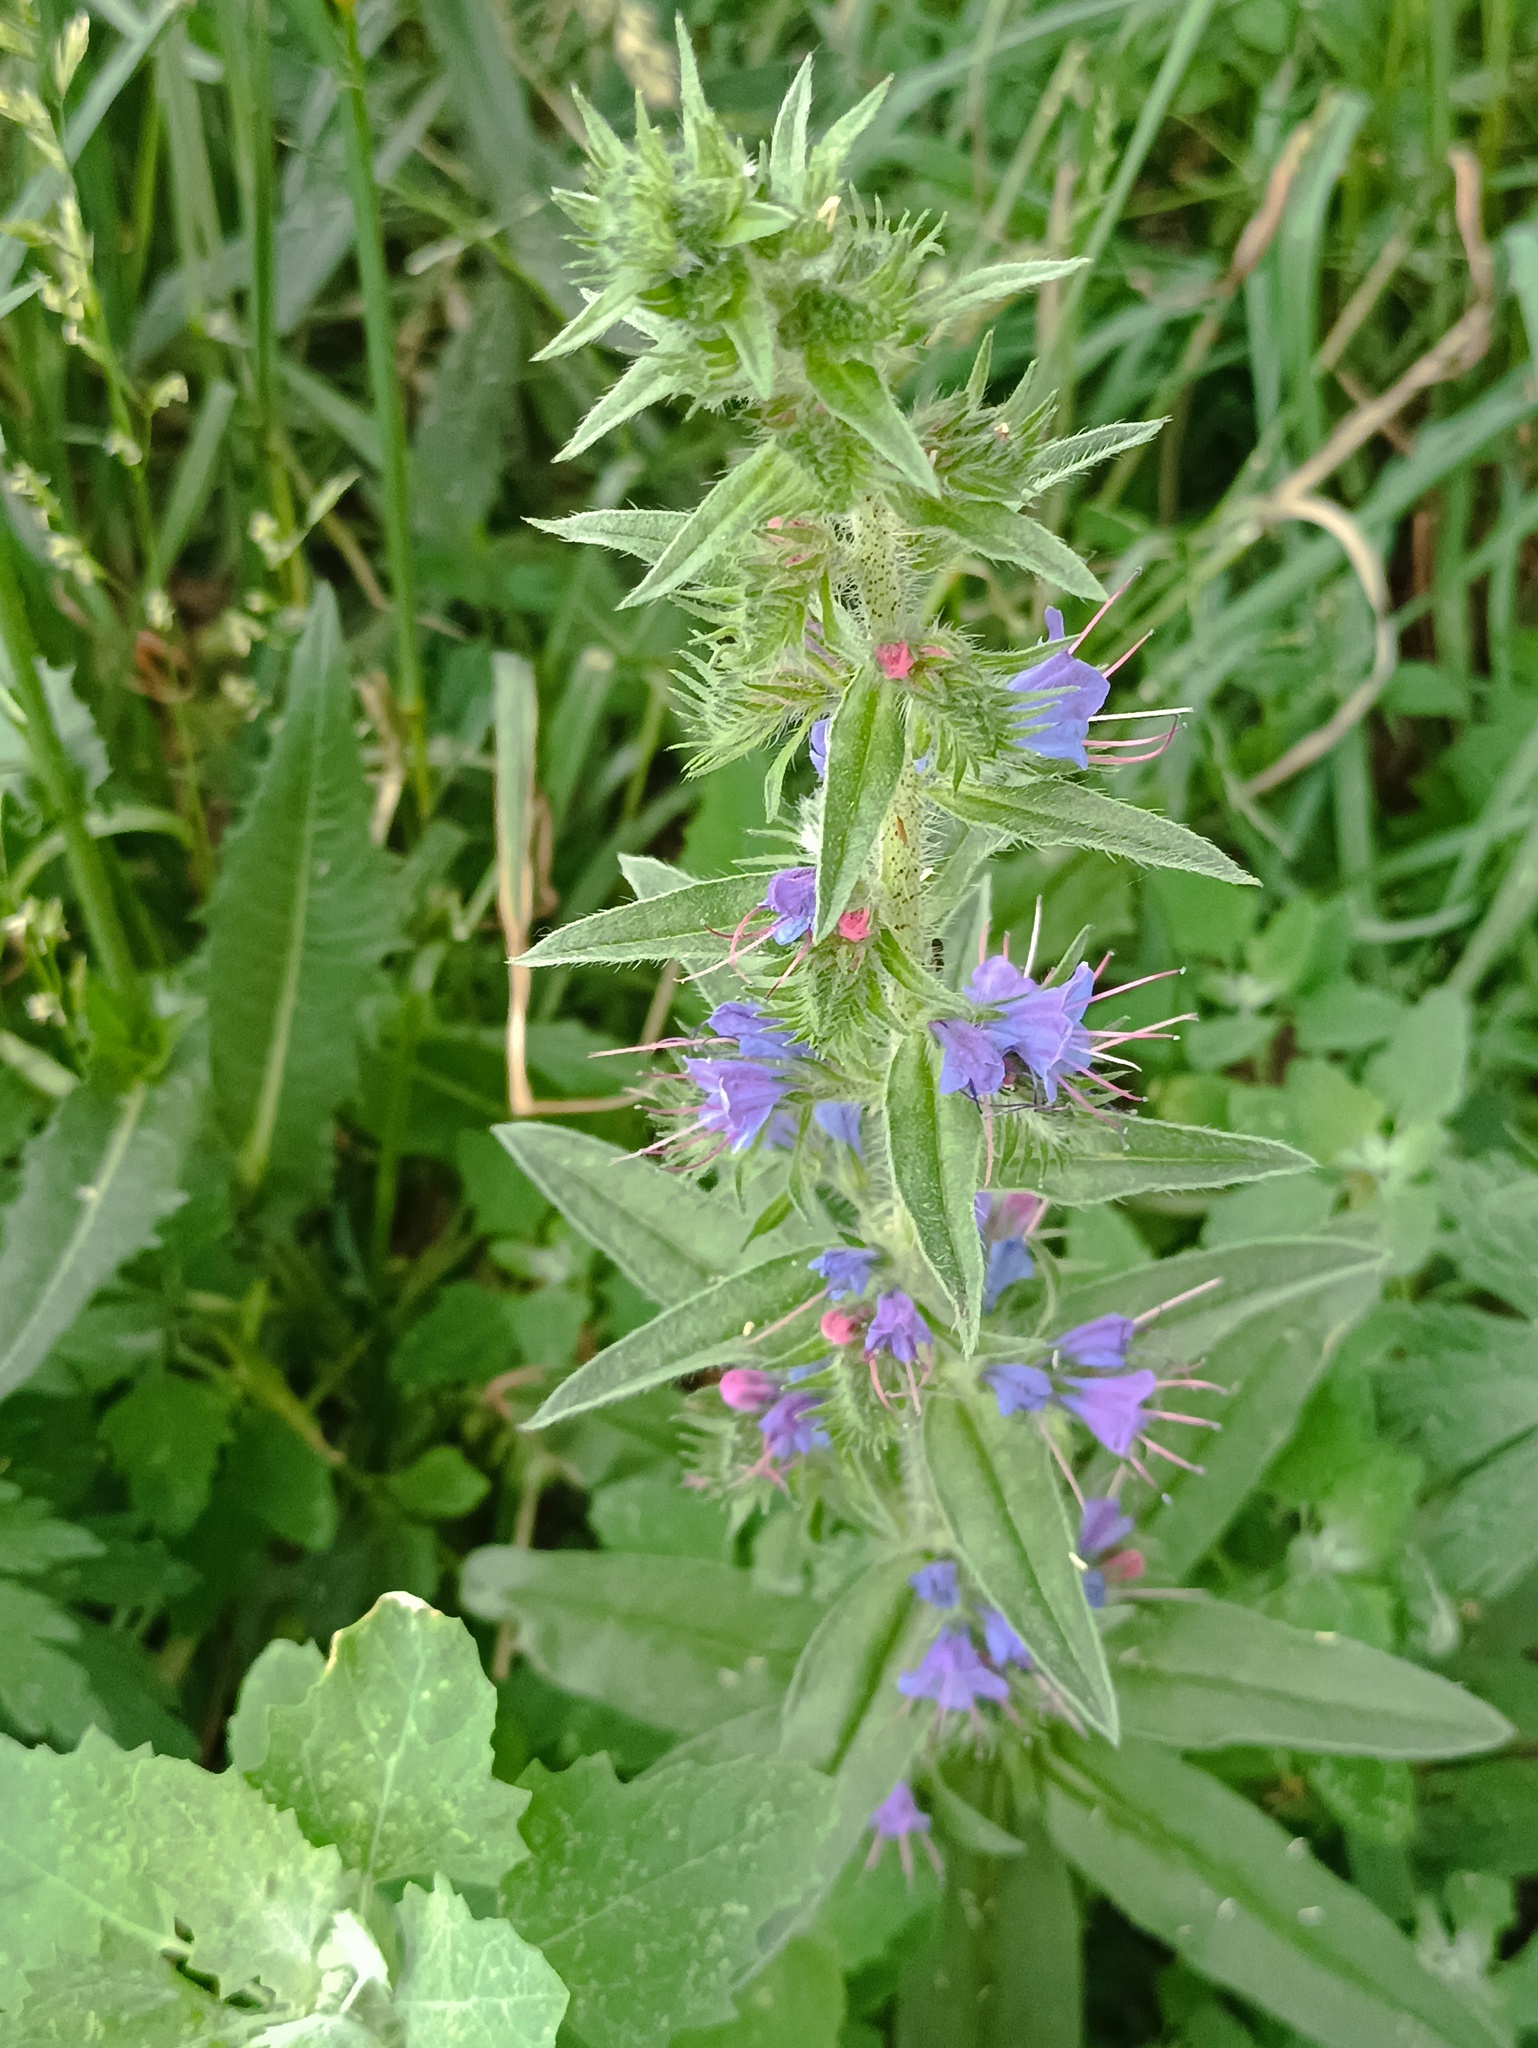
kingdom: Plantae
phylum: Tracheophyta
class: Magnoliopsida
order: Boraginales
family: Boraginaceae
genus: Echium
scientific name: Echium vulgare
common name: Common viper's bugloss
